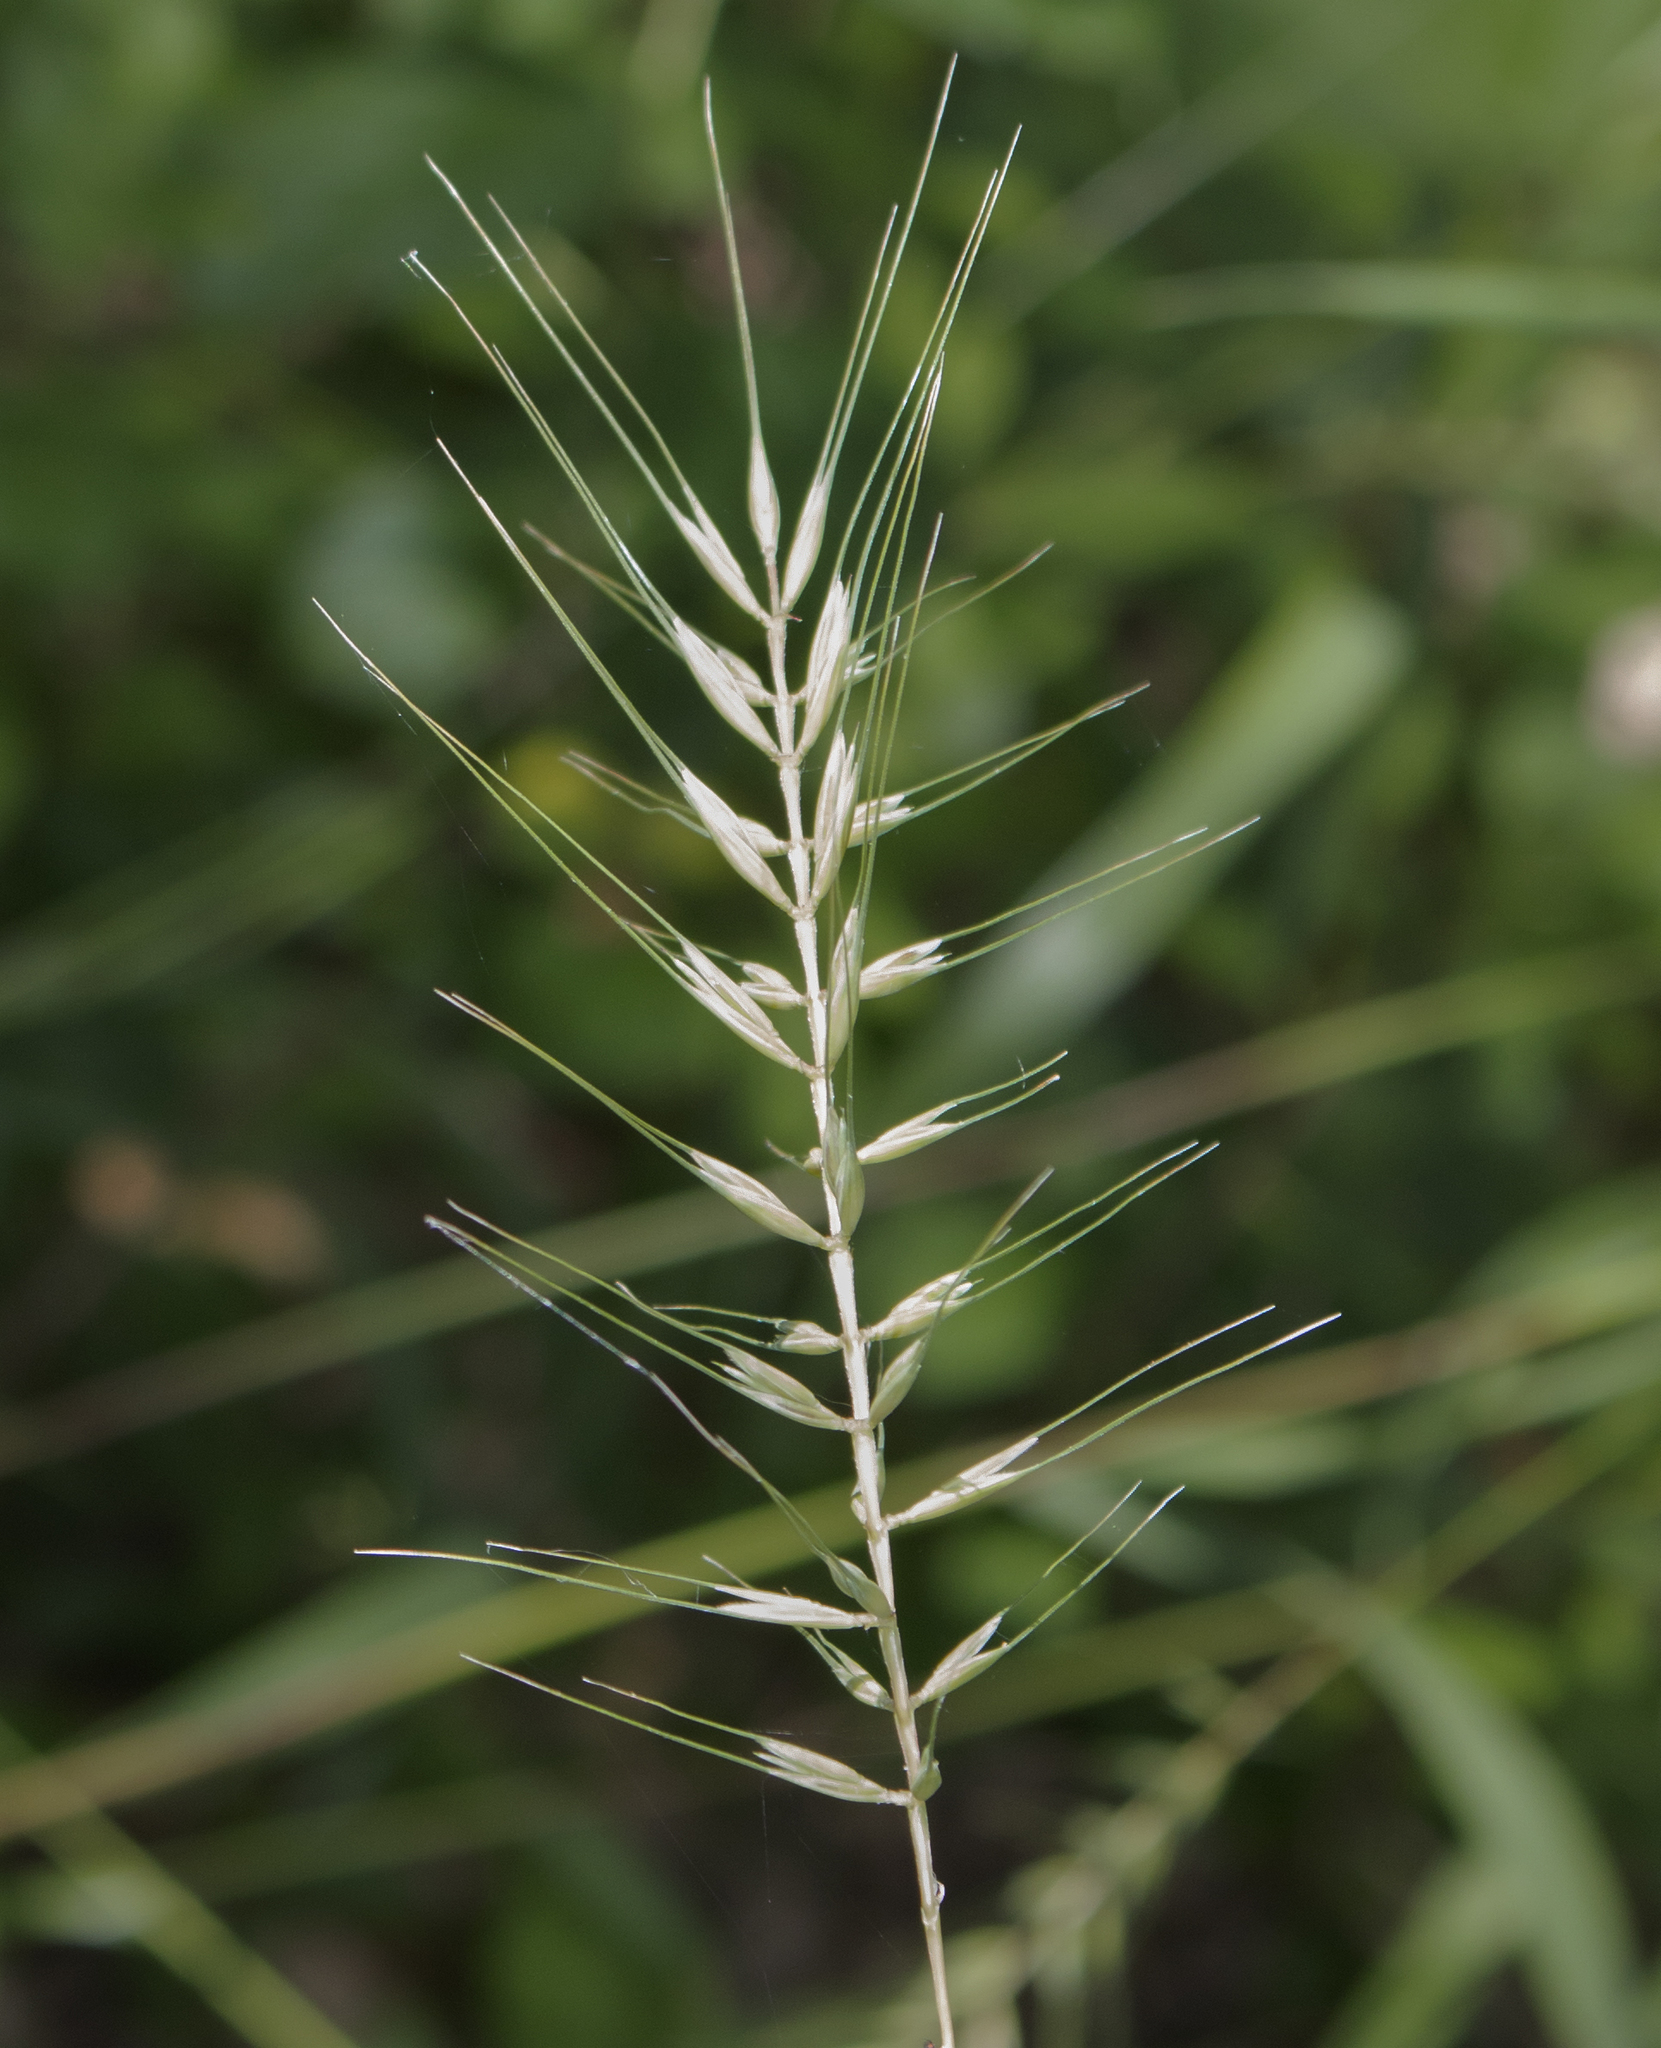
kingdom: Plantae
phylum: Tracheophyta
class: Liliopsida
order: Poales
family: Poaceae
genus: Elymus
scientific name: Elymus hystrix
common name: Bottlebrush grass
